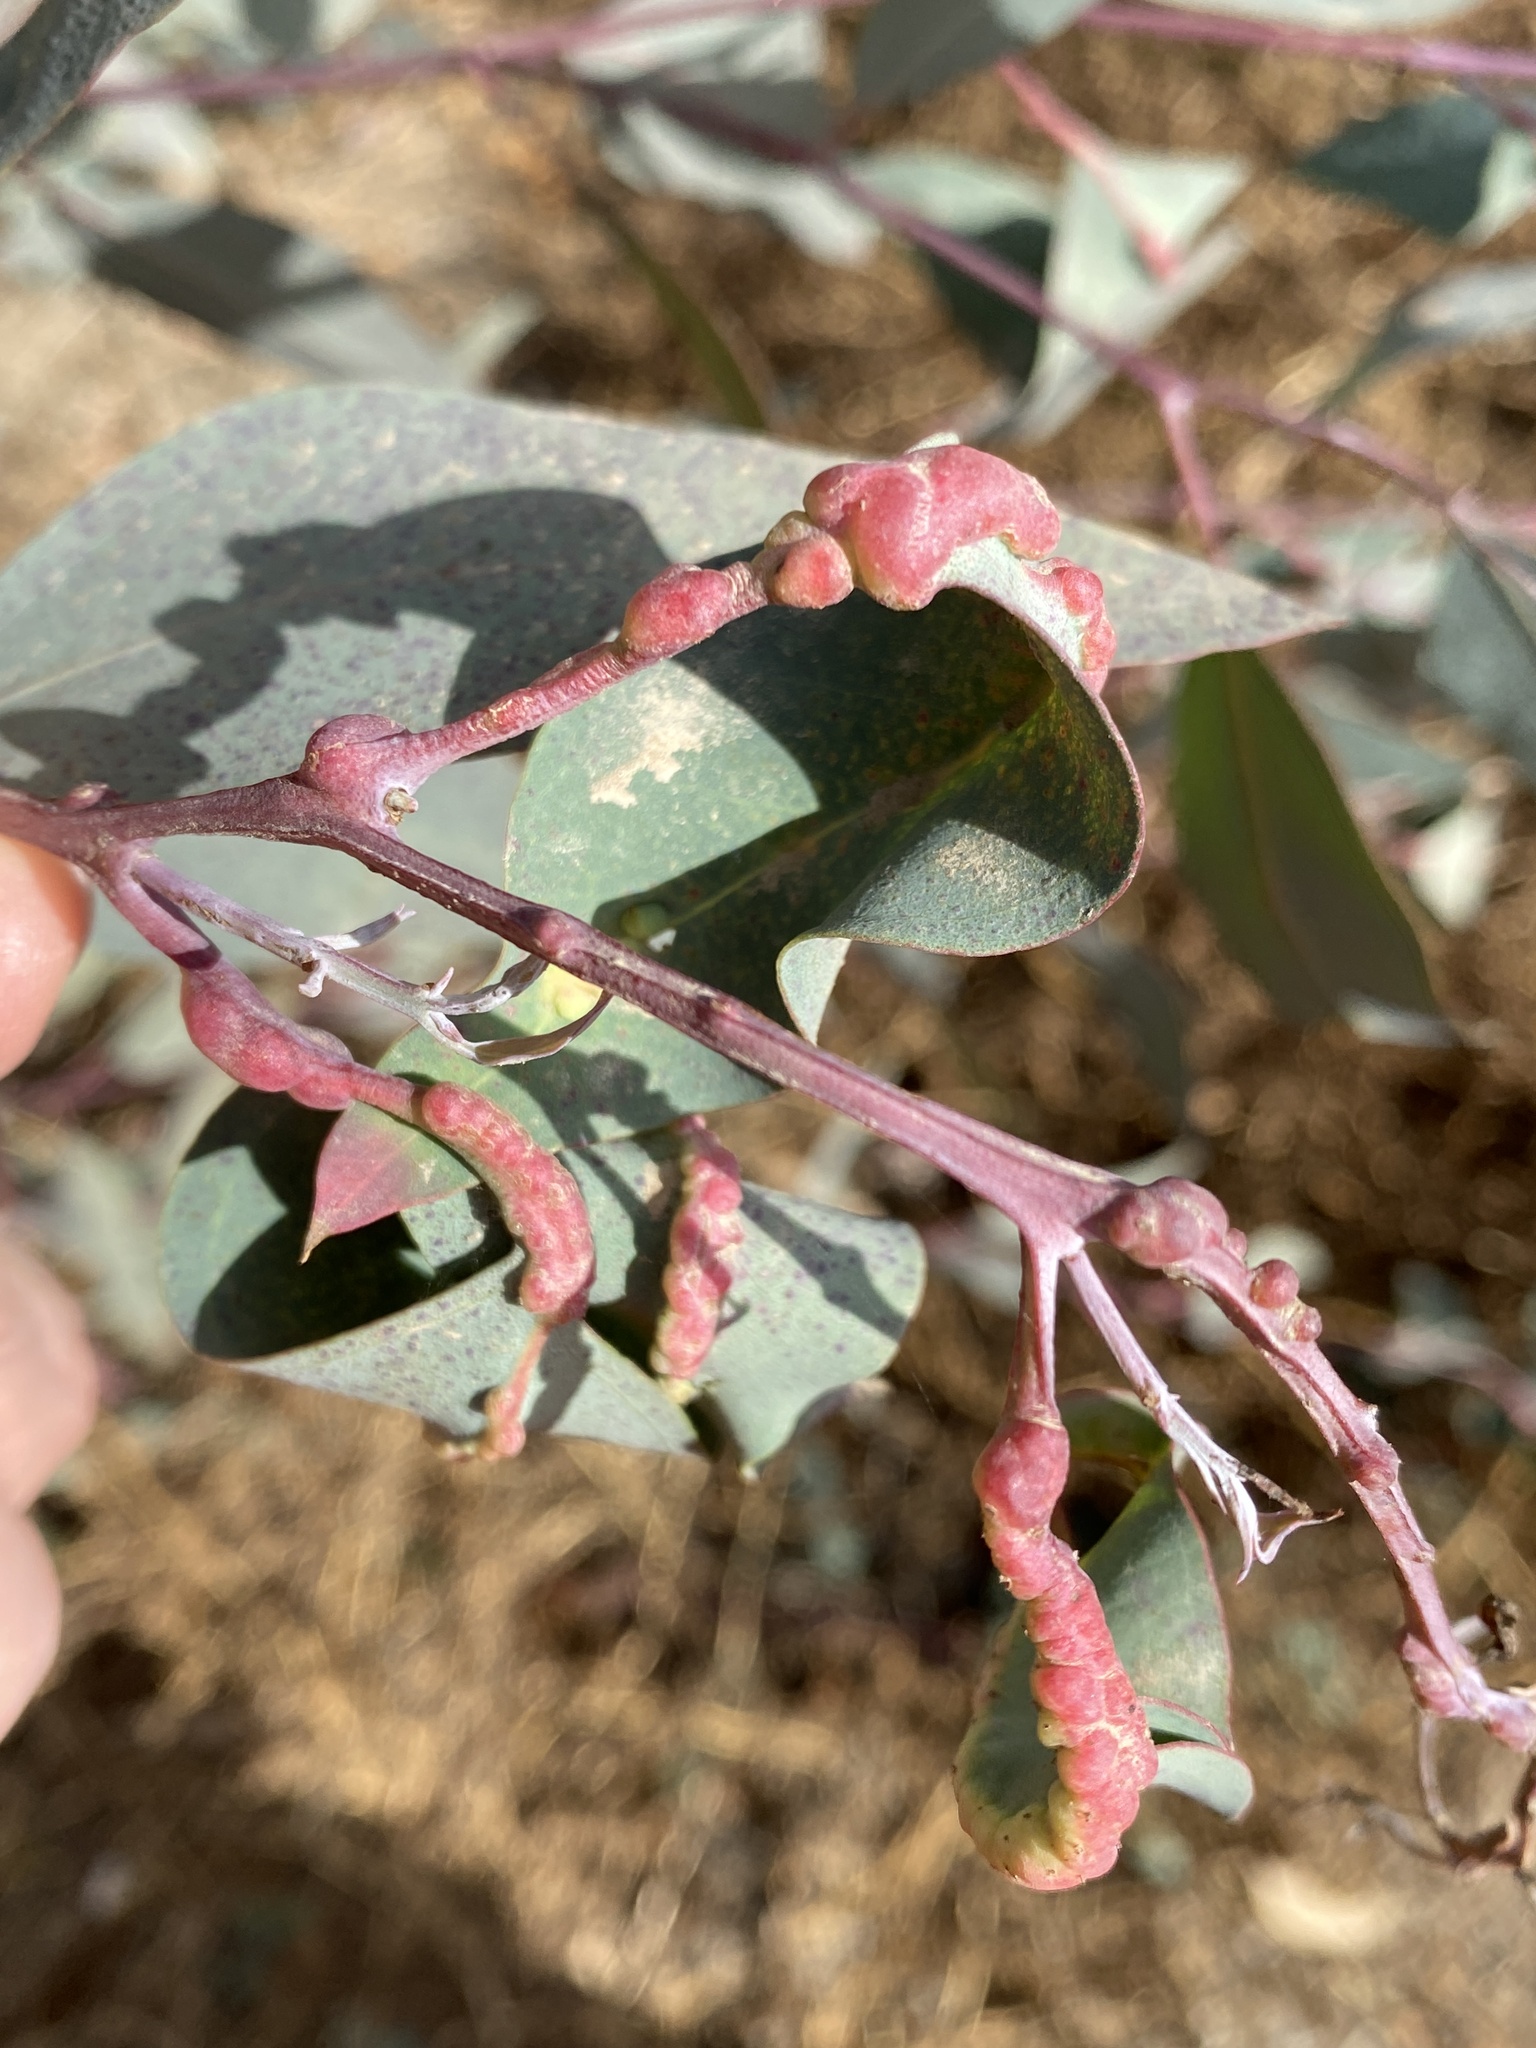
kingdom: Animalia
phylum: Arthropoda
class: Insecta
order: Hymenoptera
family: Eulophidae
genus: Leptocybe
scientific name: Leptocybe invasa
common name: Gall wasp
